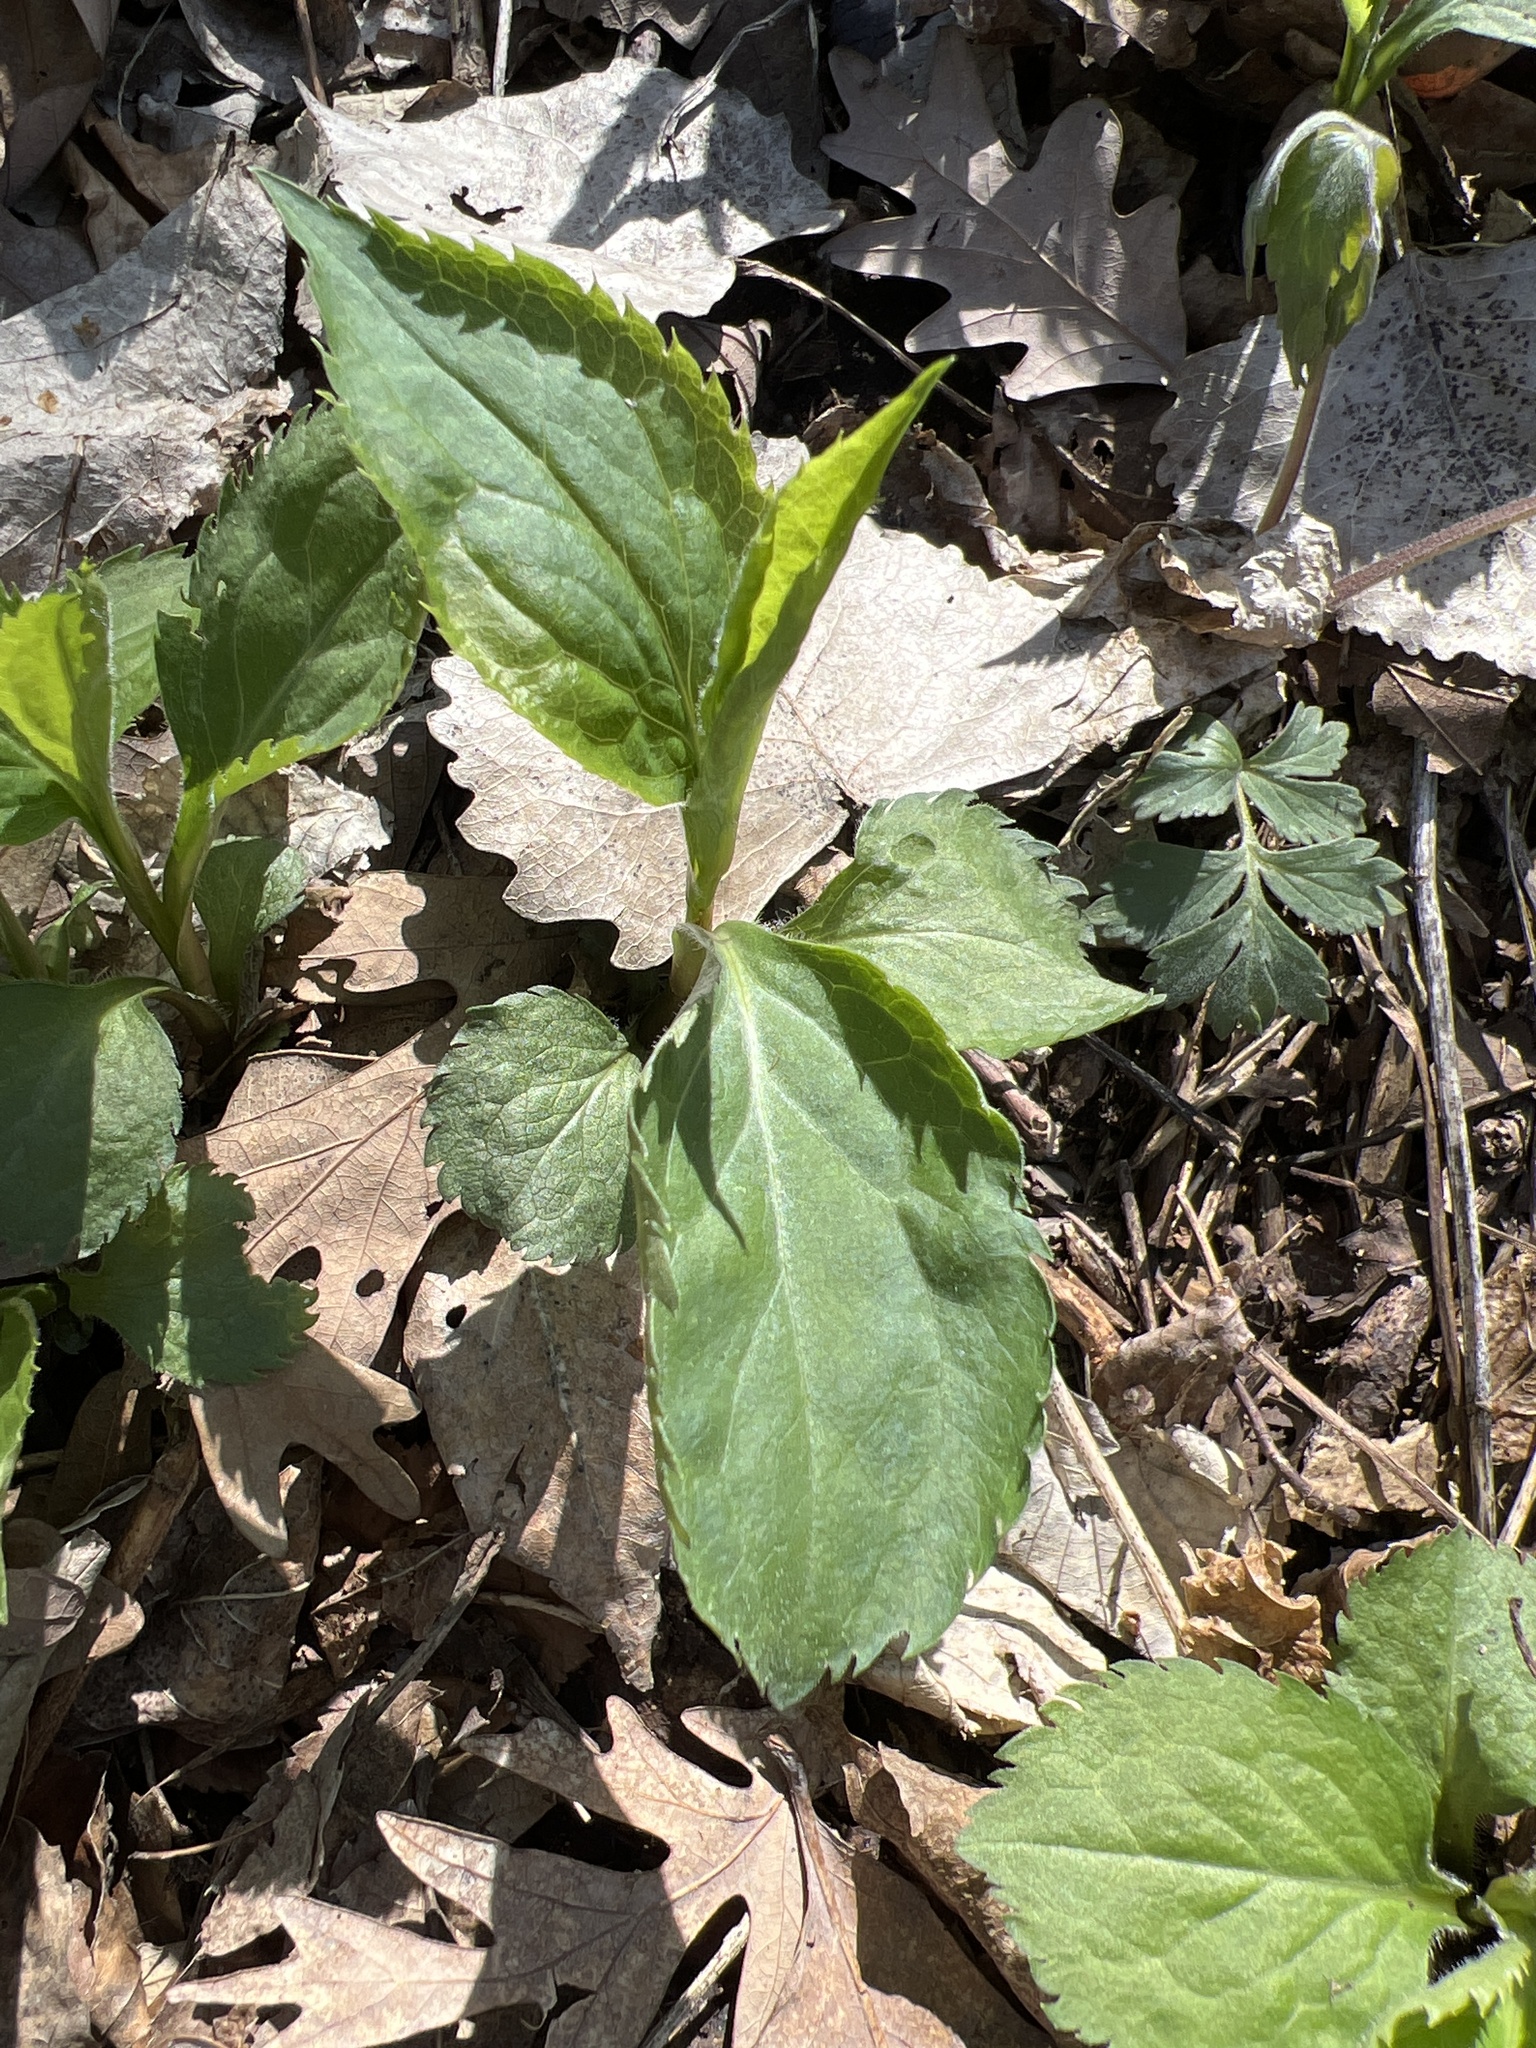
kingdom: Plantae
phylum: Tracheophyta
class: Magnoliopsida
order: Asterales
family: Asteraceae
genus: Solidago
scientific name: Solidago flexicaulis
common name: Zig-zag goldenrod
